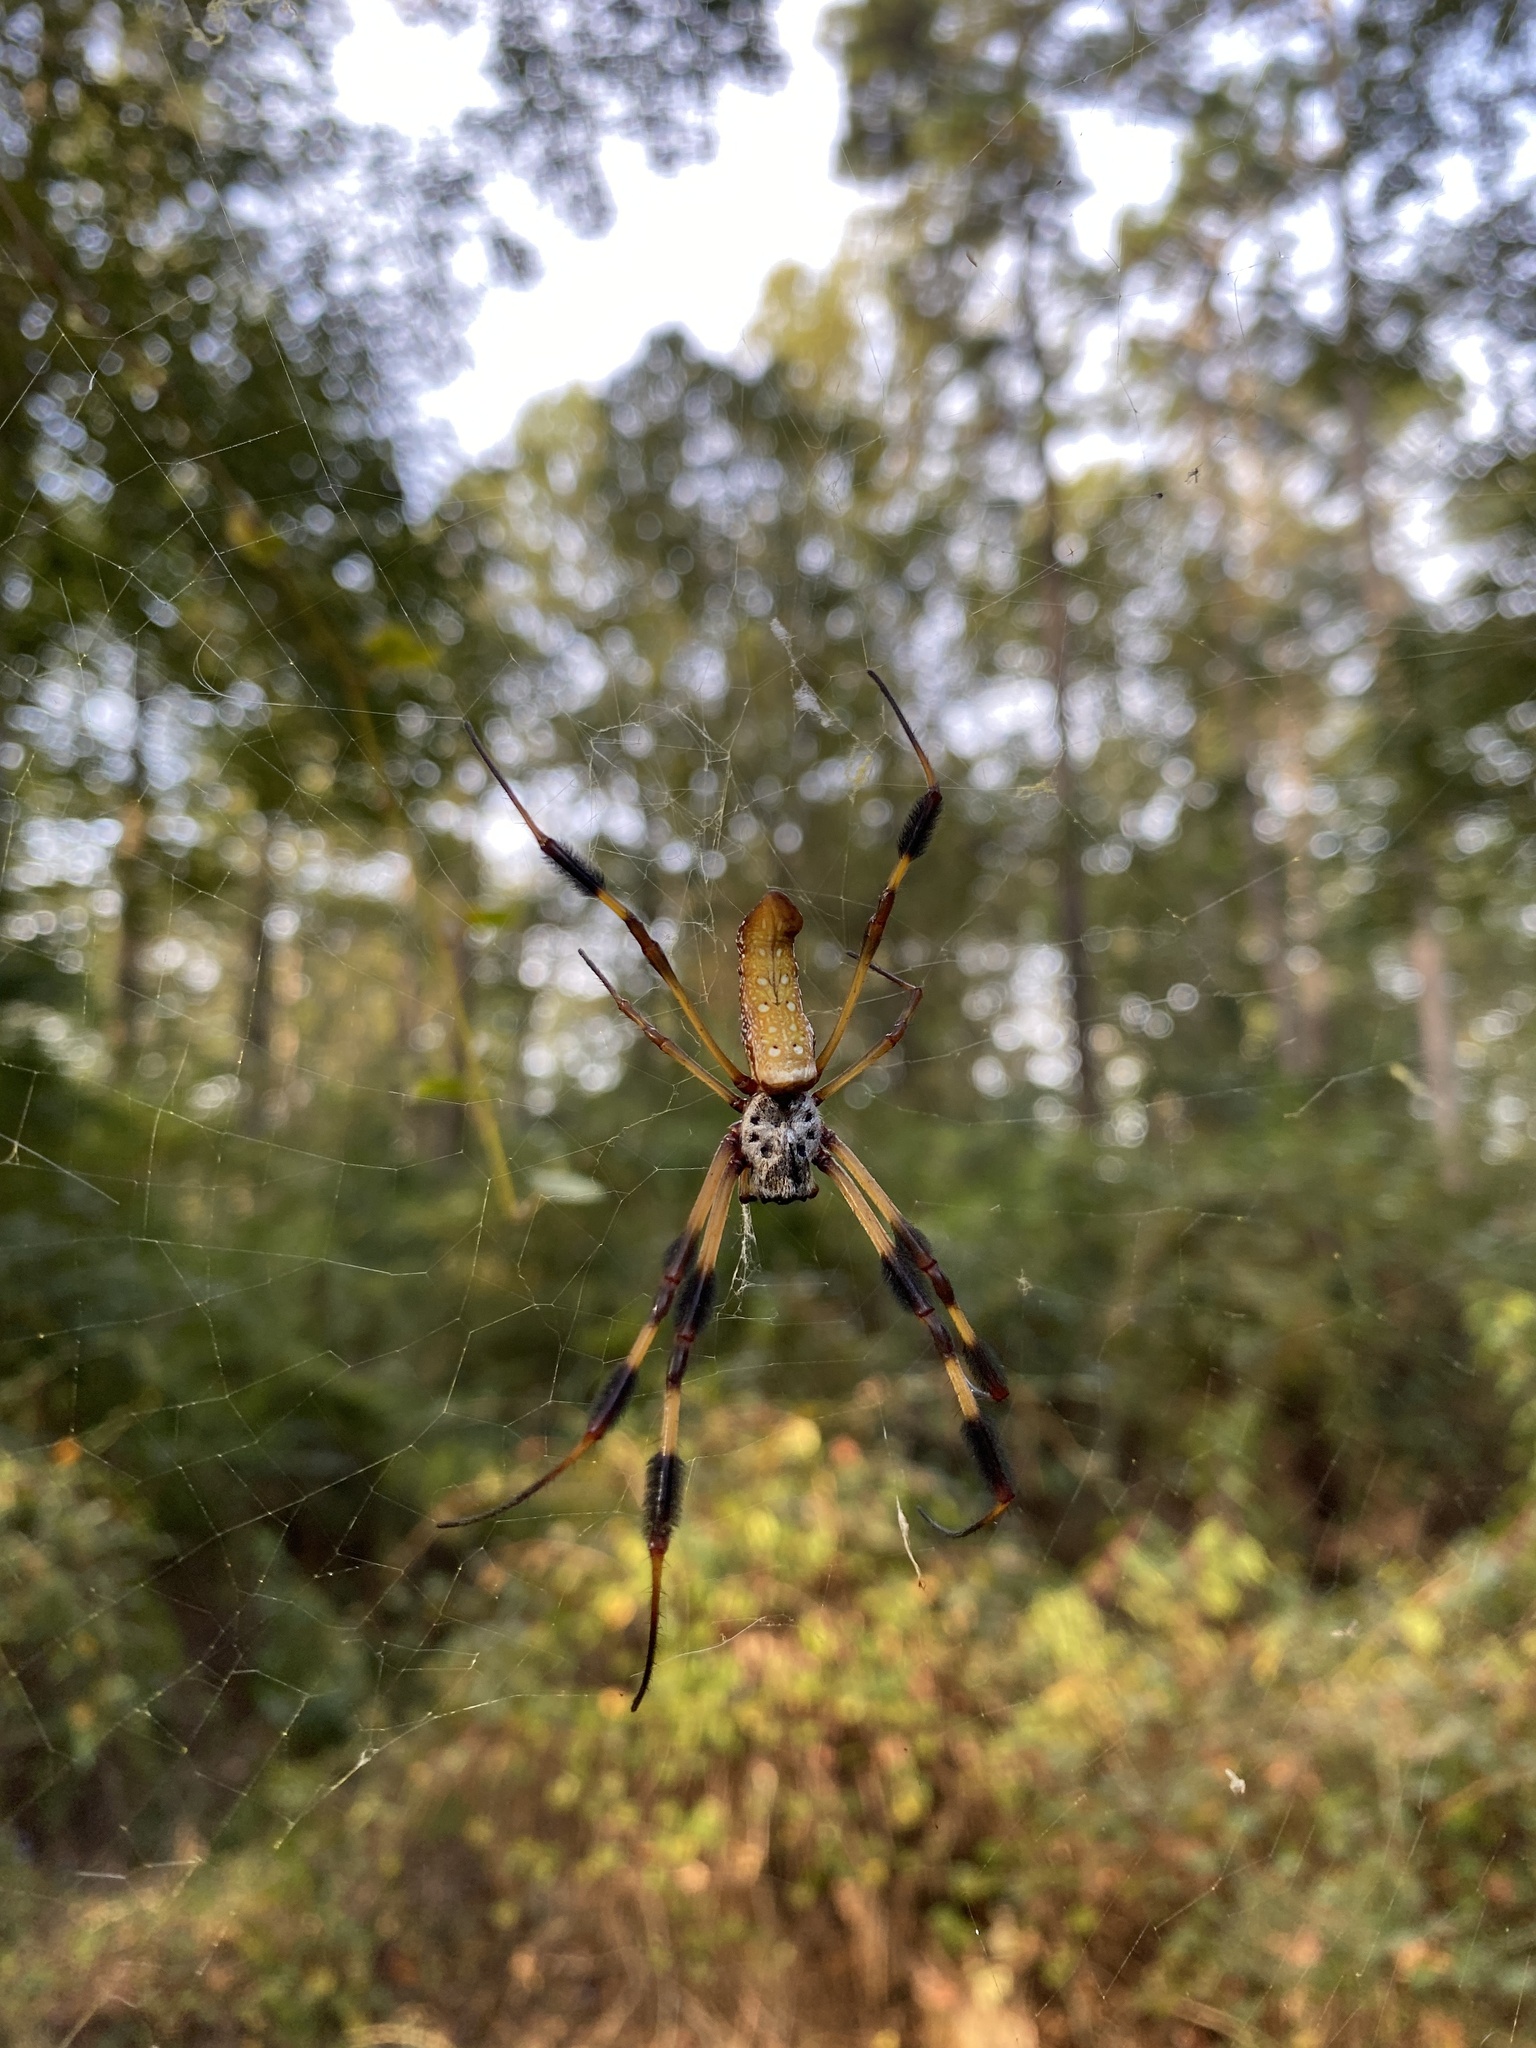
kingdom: Animalia
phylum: Arthropoda
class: Arachnida
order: Araneae
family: Araneidae
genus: Trichonephila
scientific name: Trichonephila clavipes
